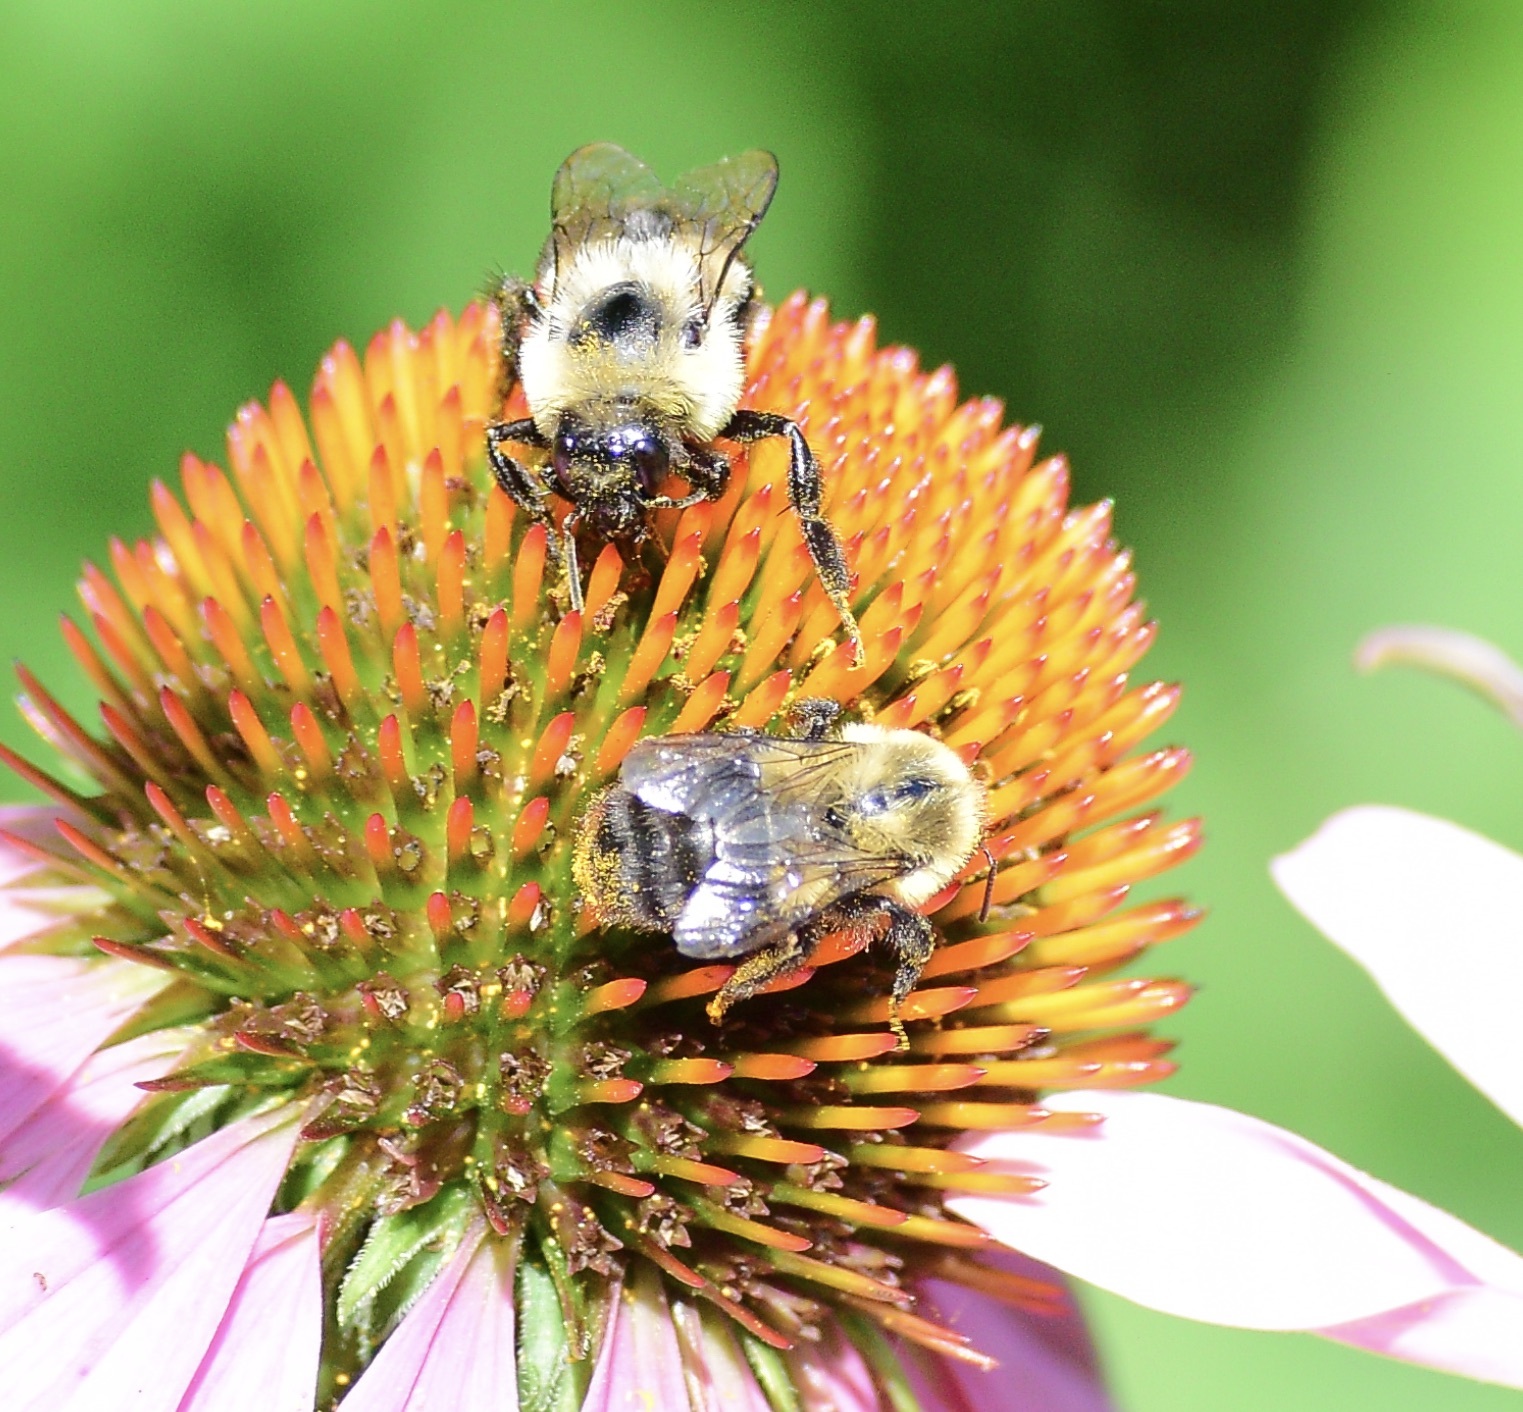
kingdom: Animalia
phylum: Arthropoda
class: Insecta
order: Hymenoptera
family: Apidae
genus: Bombus
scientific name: Bombus impatiens
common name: Common eastern bumble bee
